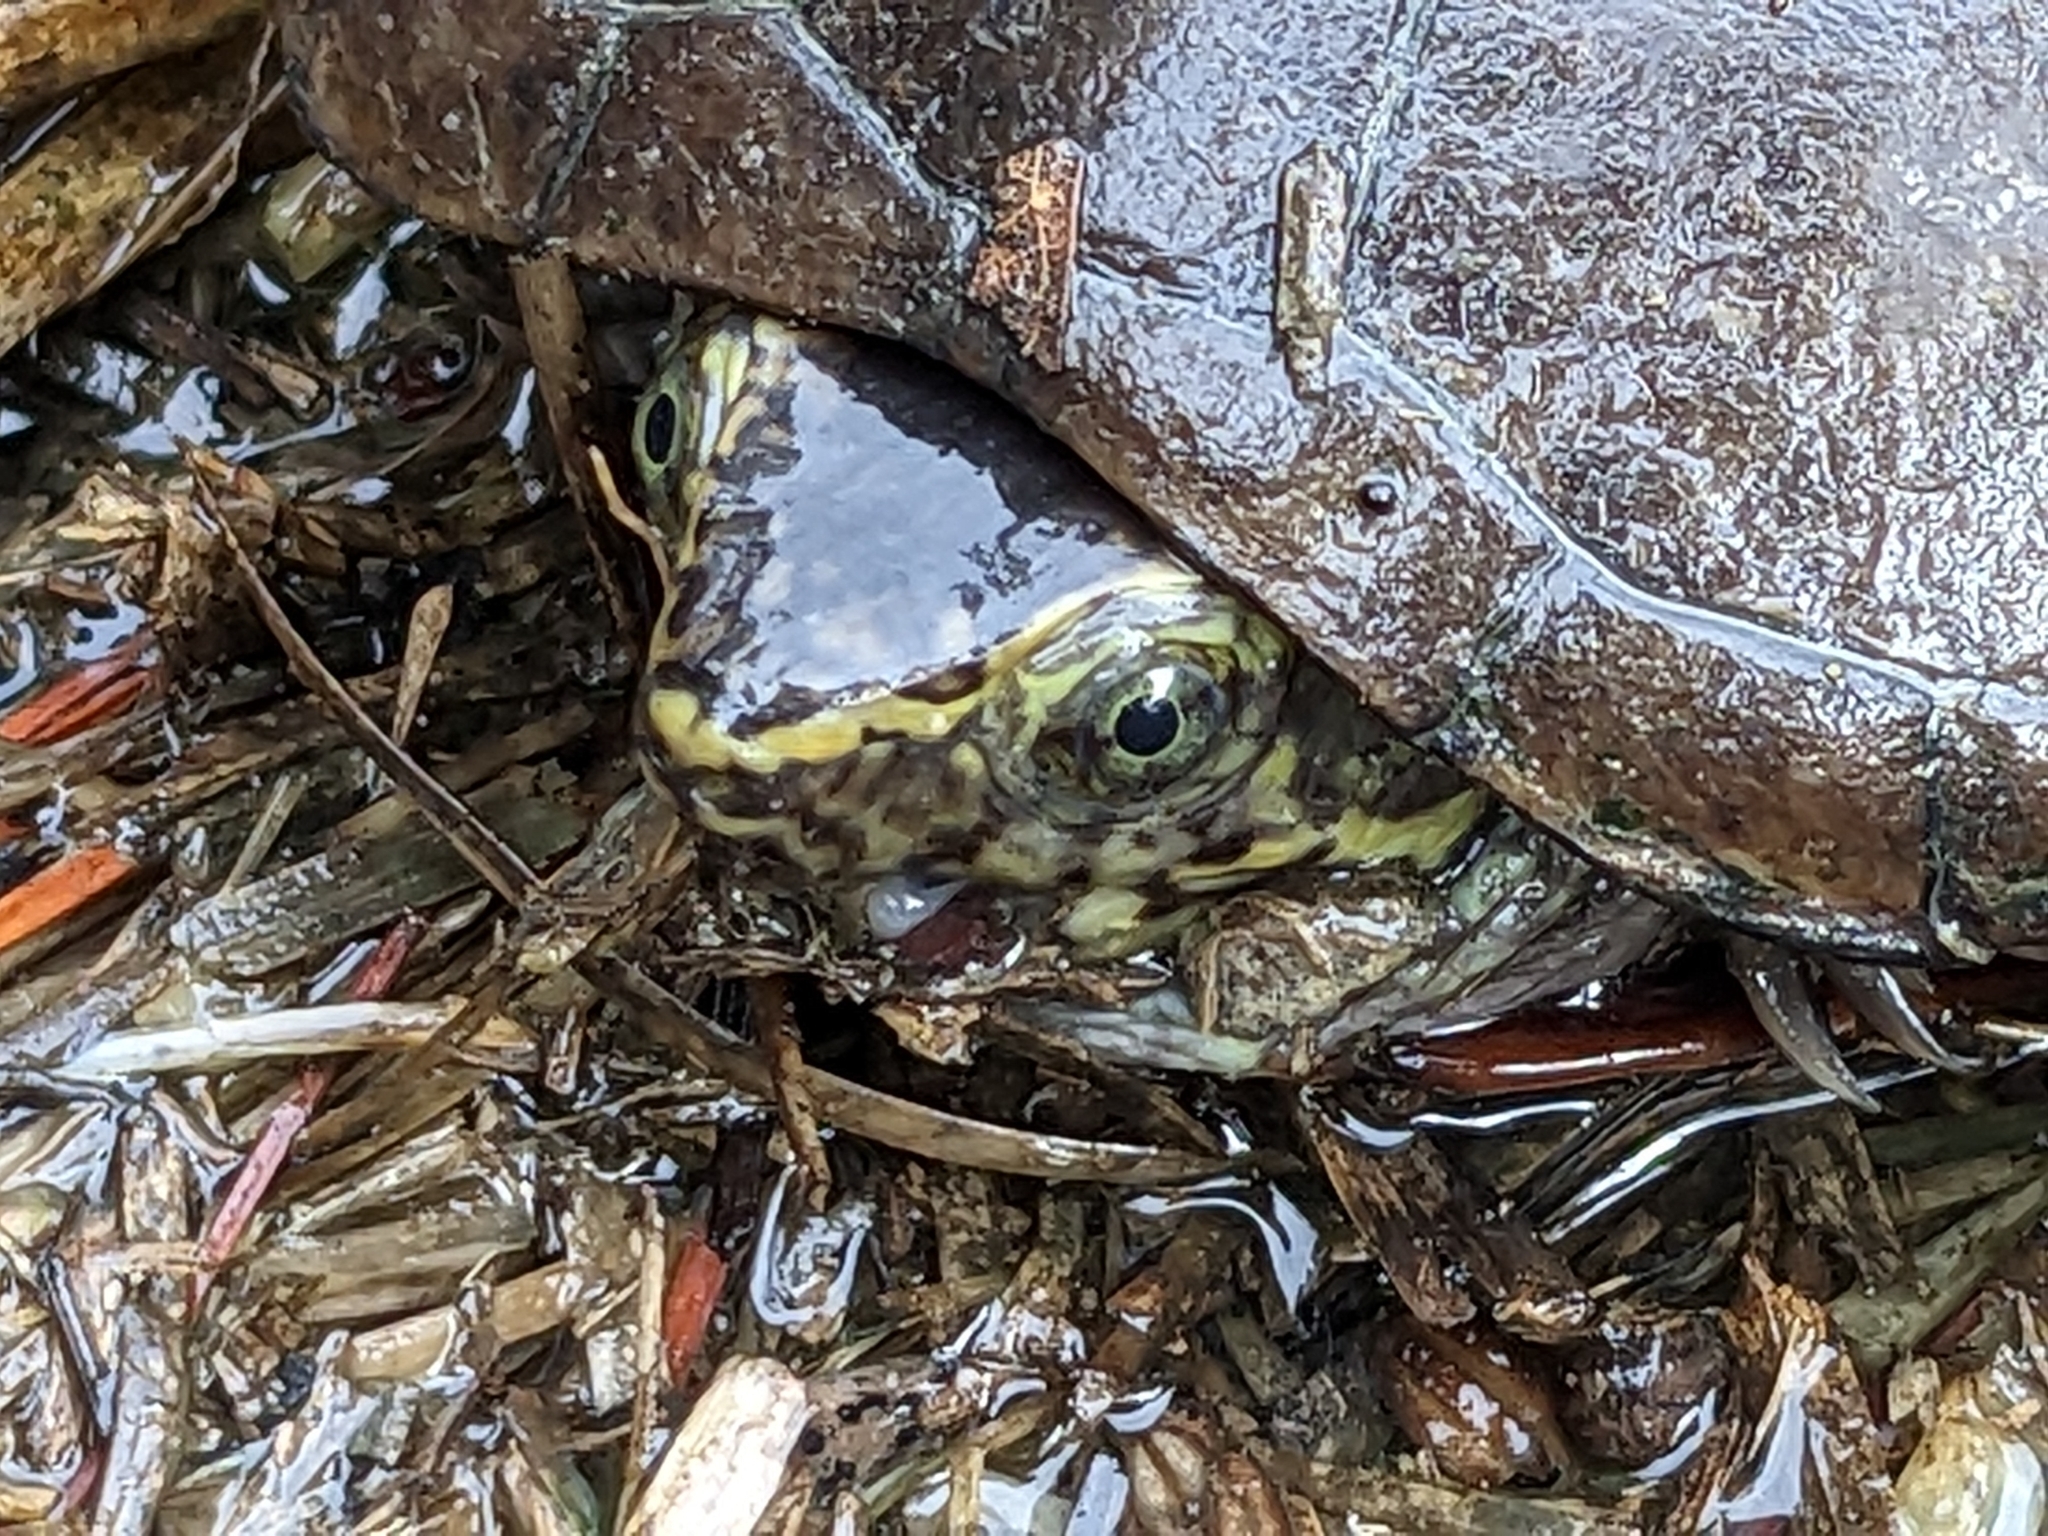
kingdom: Animalia
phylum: Chordata
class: Testudines
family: Kinosternidae
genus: Kinosternon
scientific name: Kinosternon subrubrum
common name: Eastern mud turtle
